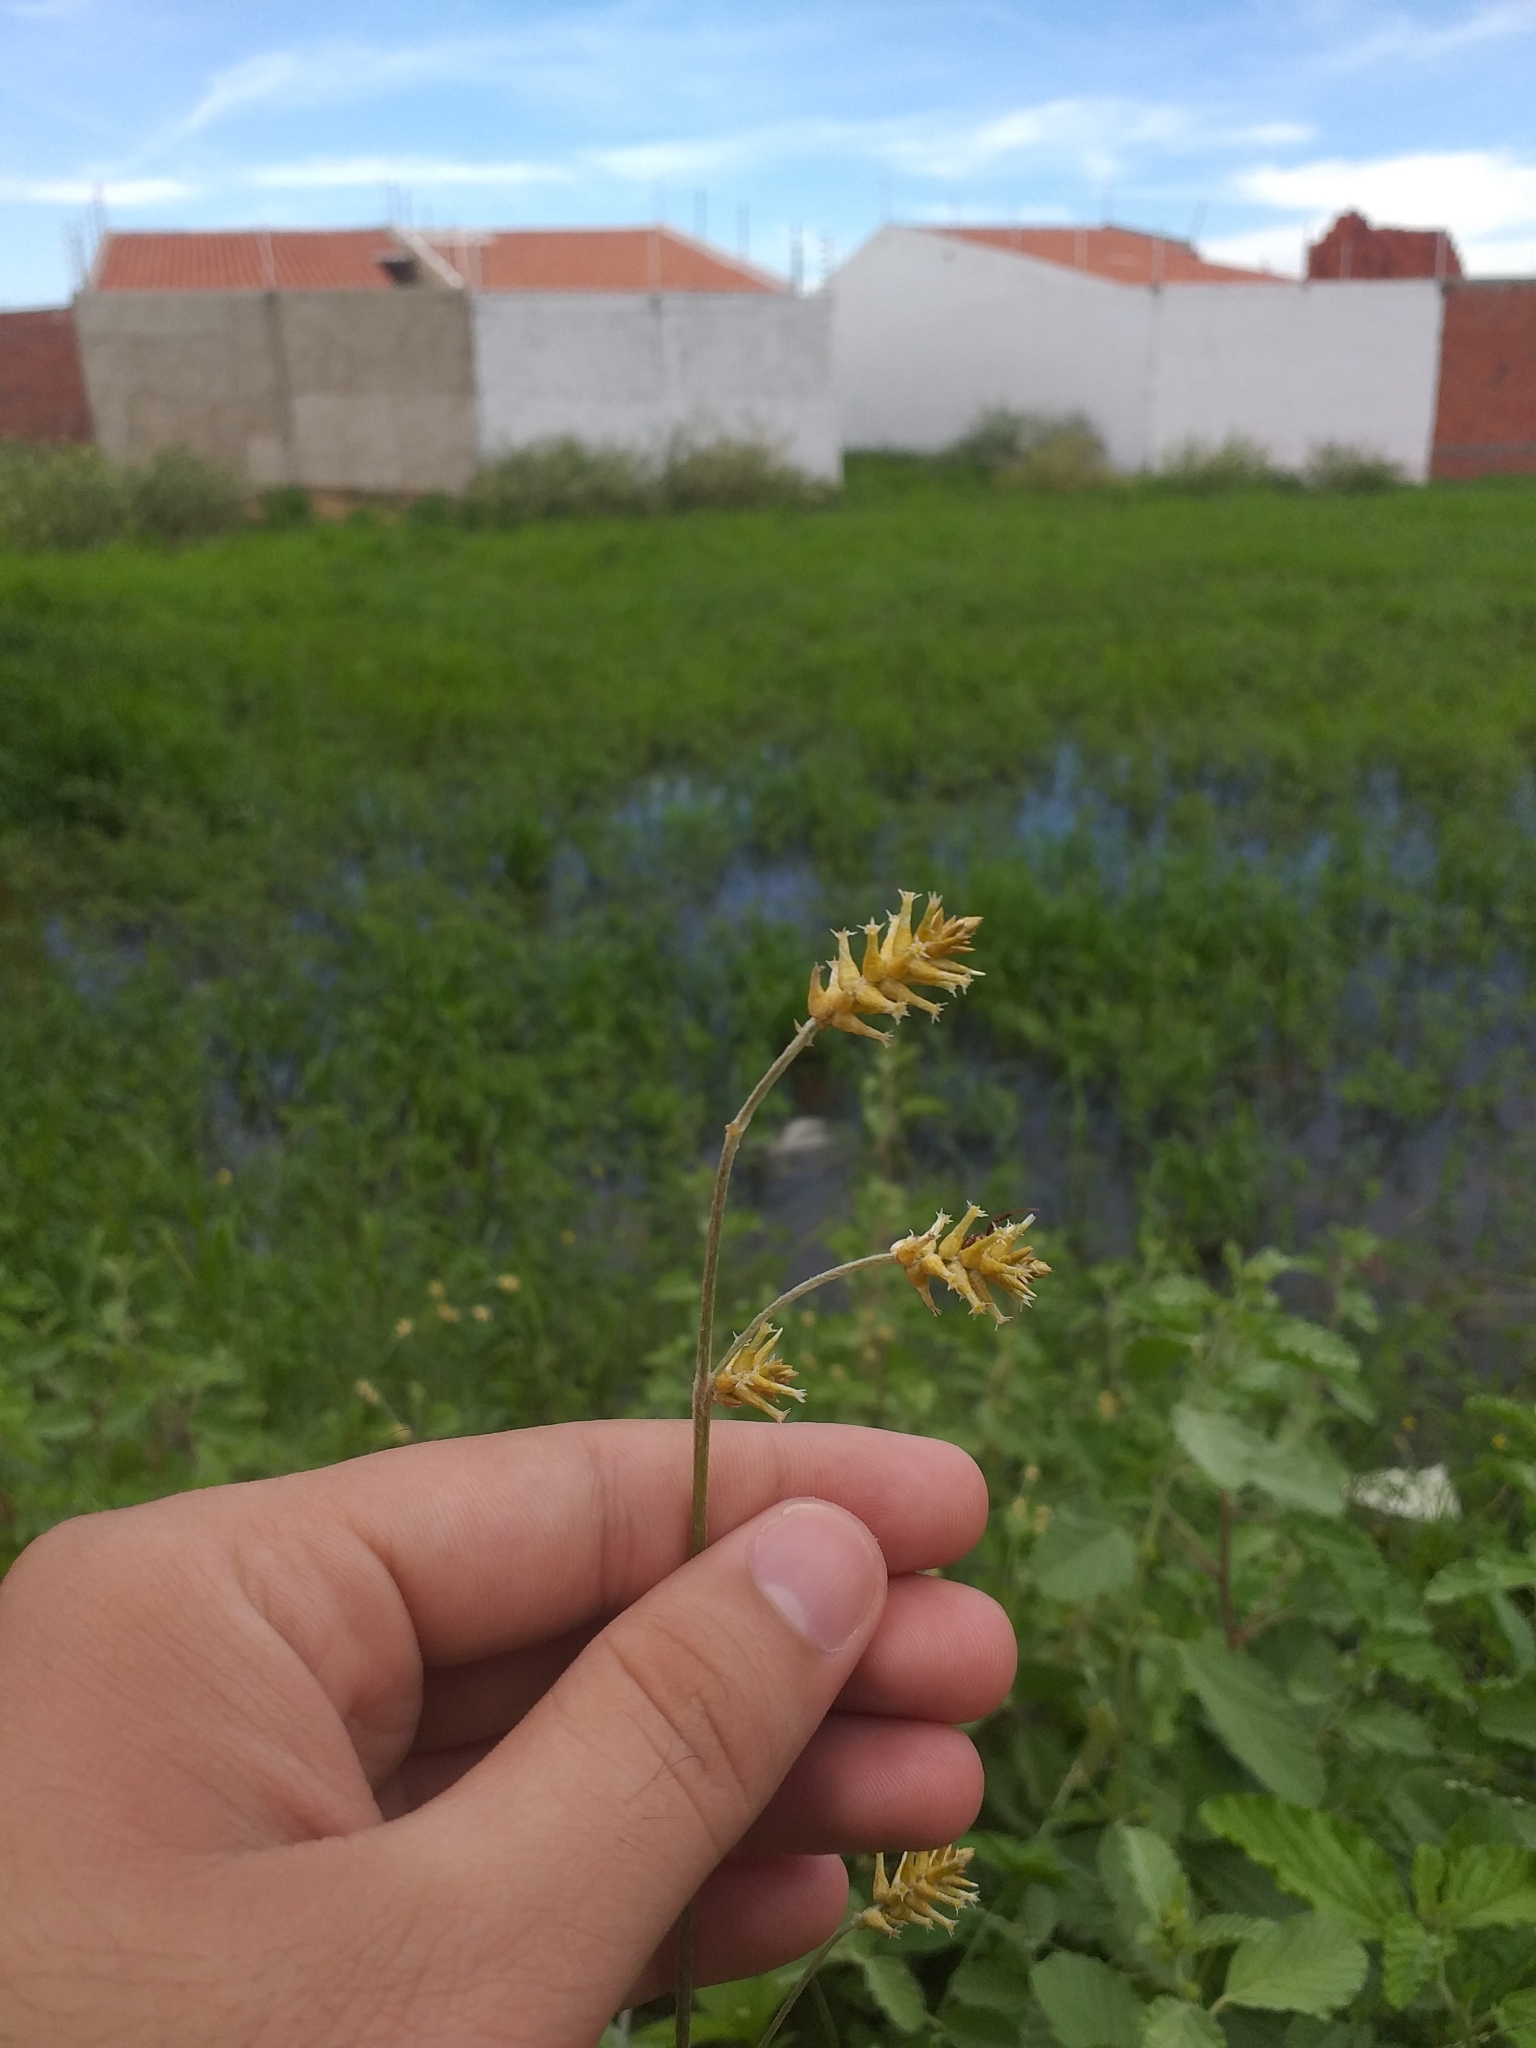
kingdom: Plantae
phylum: Tracheophyta
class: Magnoliopsida
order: Caryophyllales
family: Amaranthaceae
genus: Froelichia
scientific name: Froelichia humboldtiana
